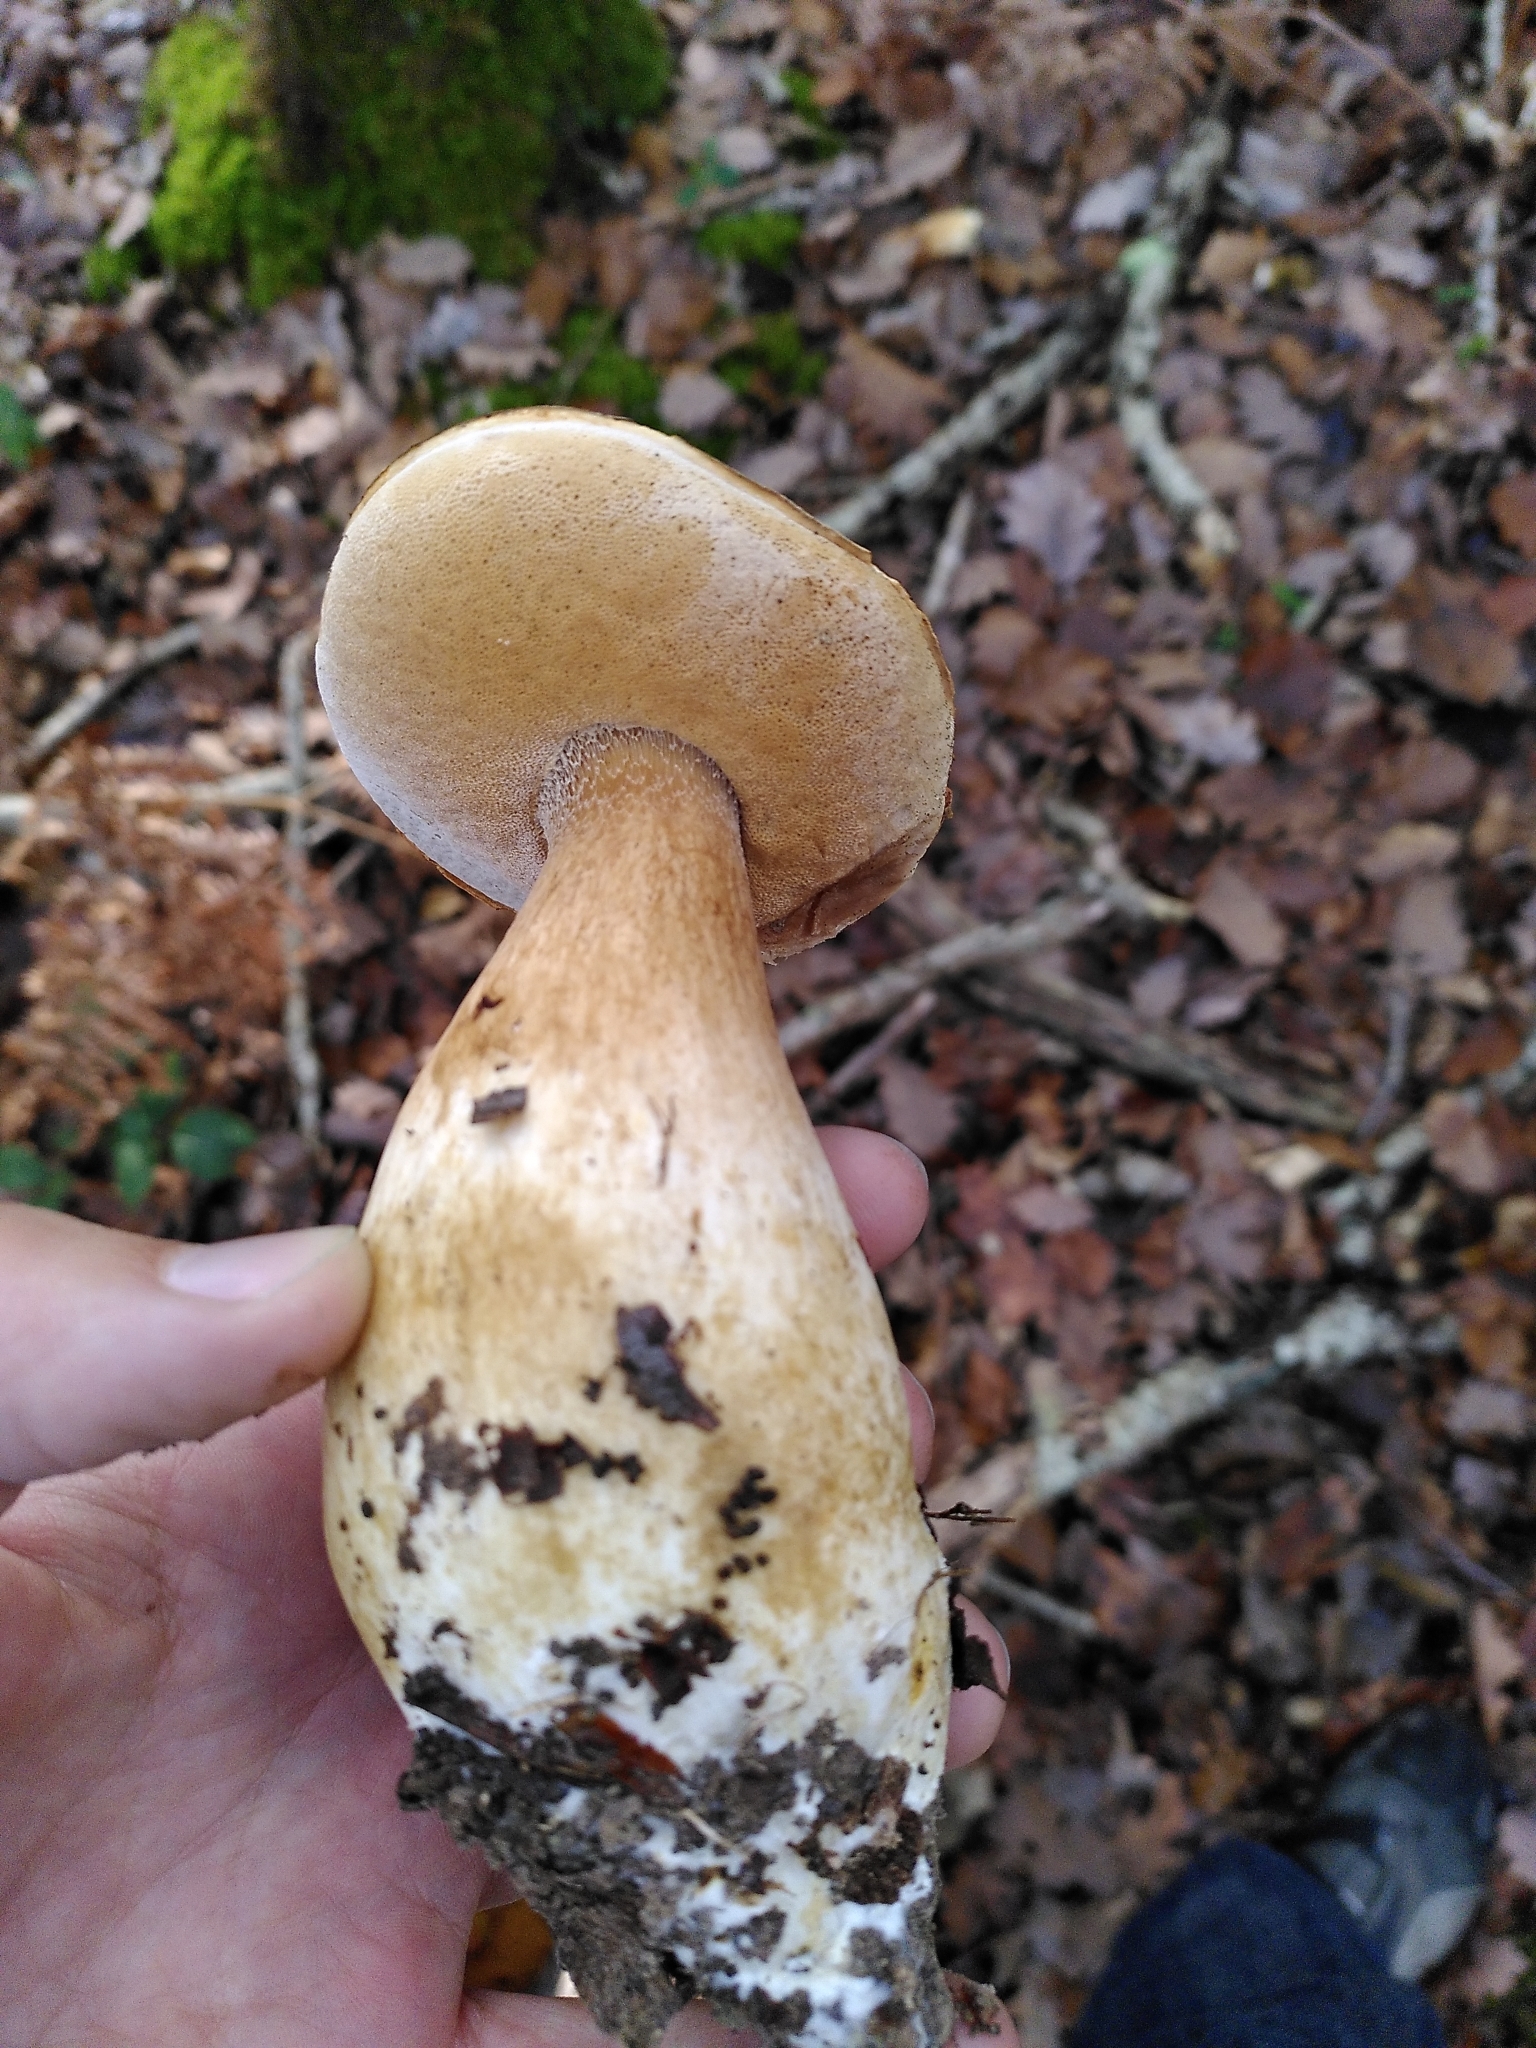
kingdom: Fungi
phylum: Basidiomycota
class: Agaricomycetes
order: Boletales
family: Boletaceae
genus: Boletus
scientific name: Boletus aereus
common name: Bronze bolete
